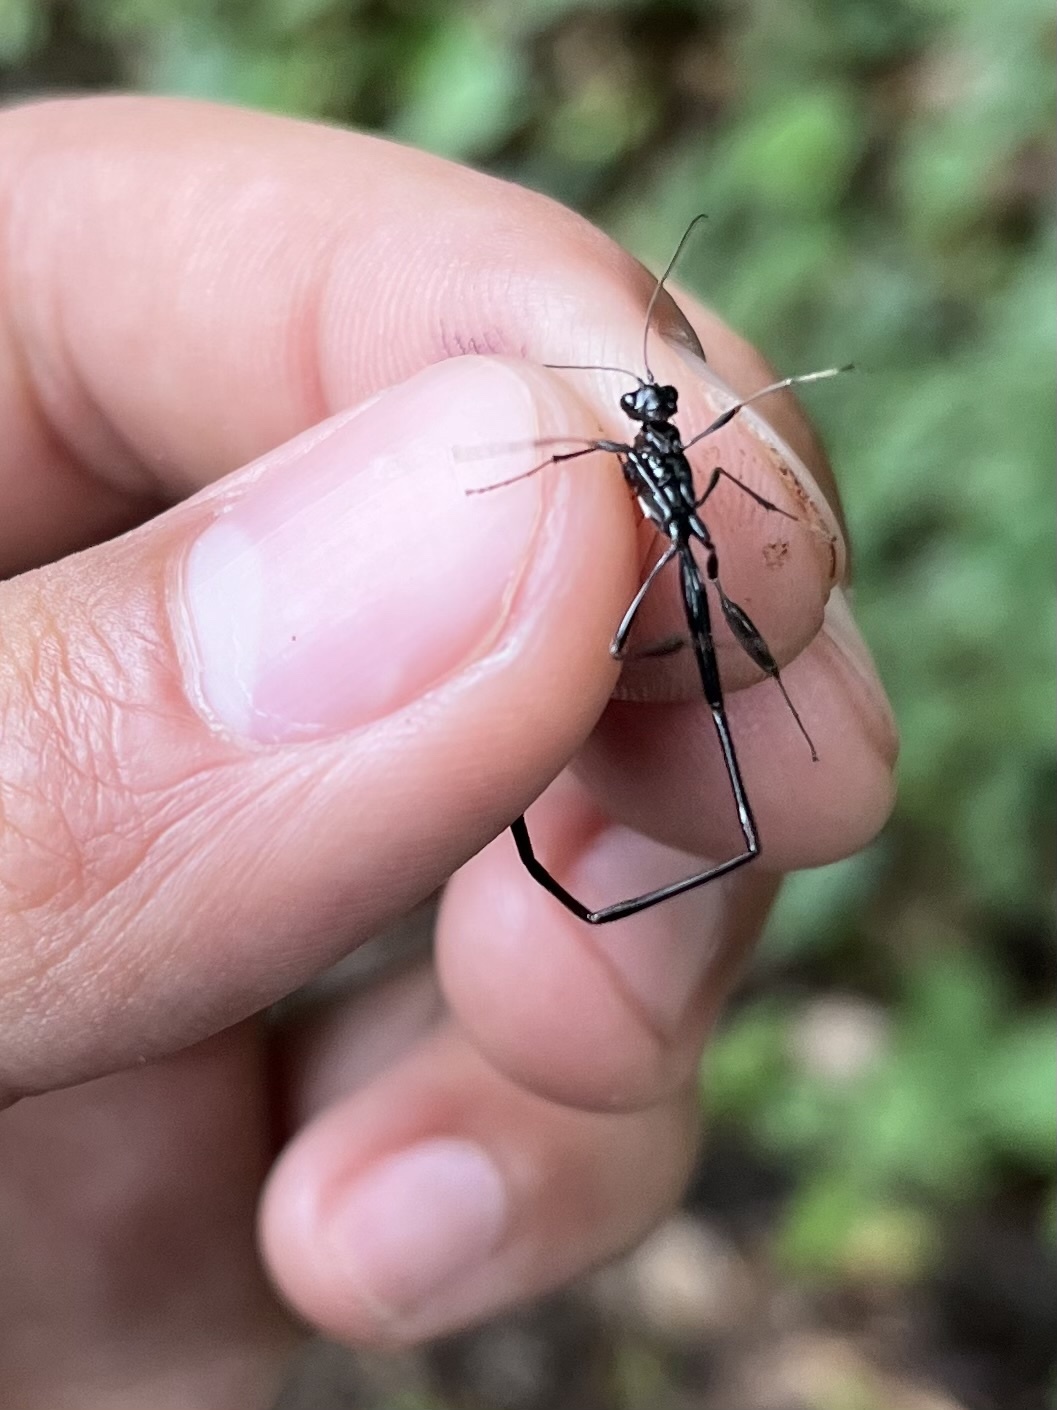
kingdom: Animalia
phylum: Arthropoda
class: Insecta
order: Hymenoptera
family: Pelecinidae
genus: Pelecinus
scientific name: Pelecinus polyturator
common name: American pelecinid wasp
